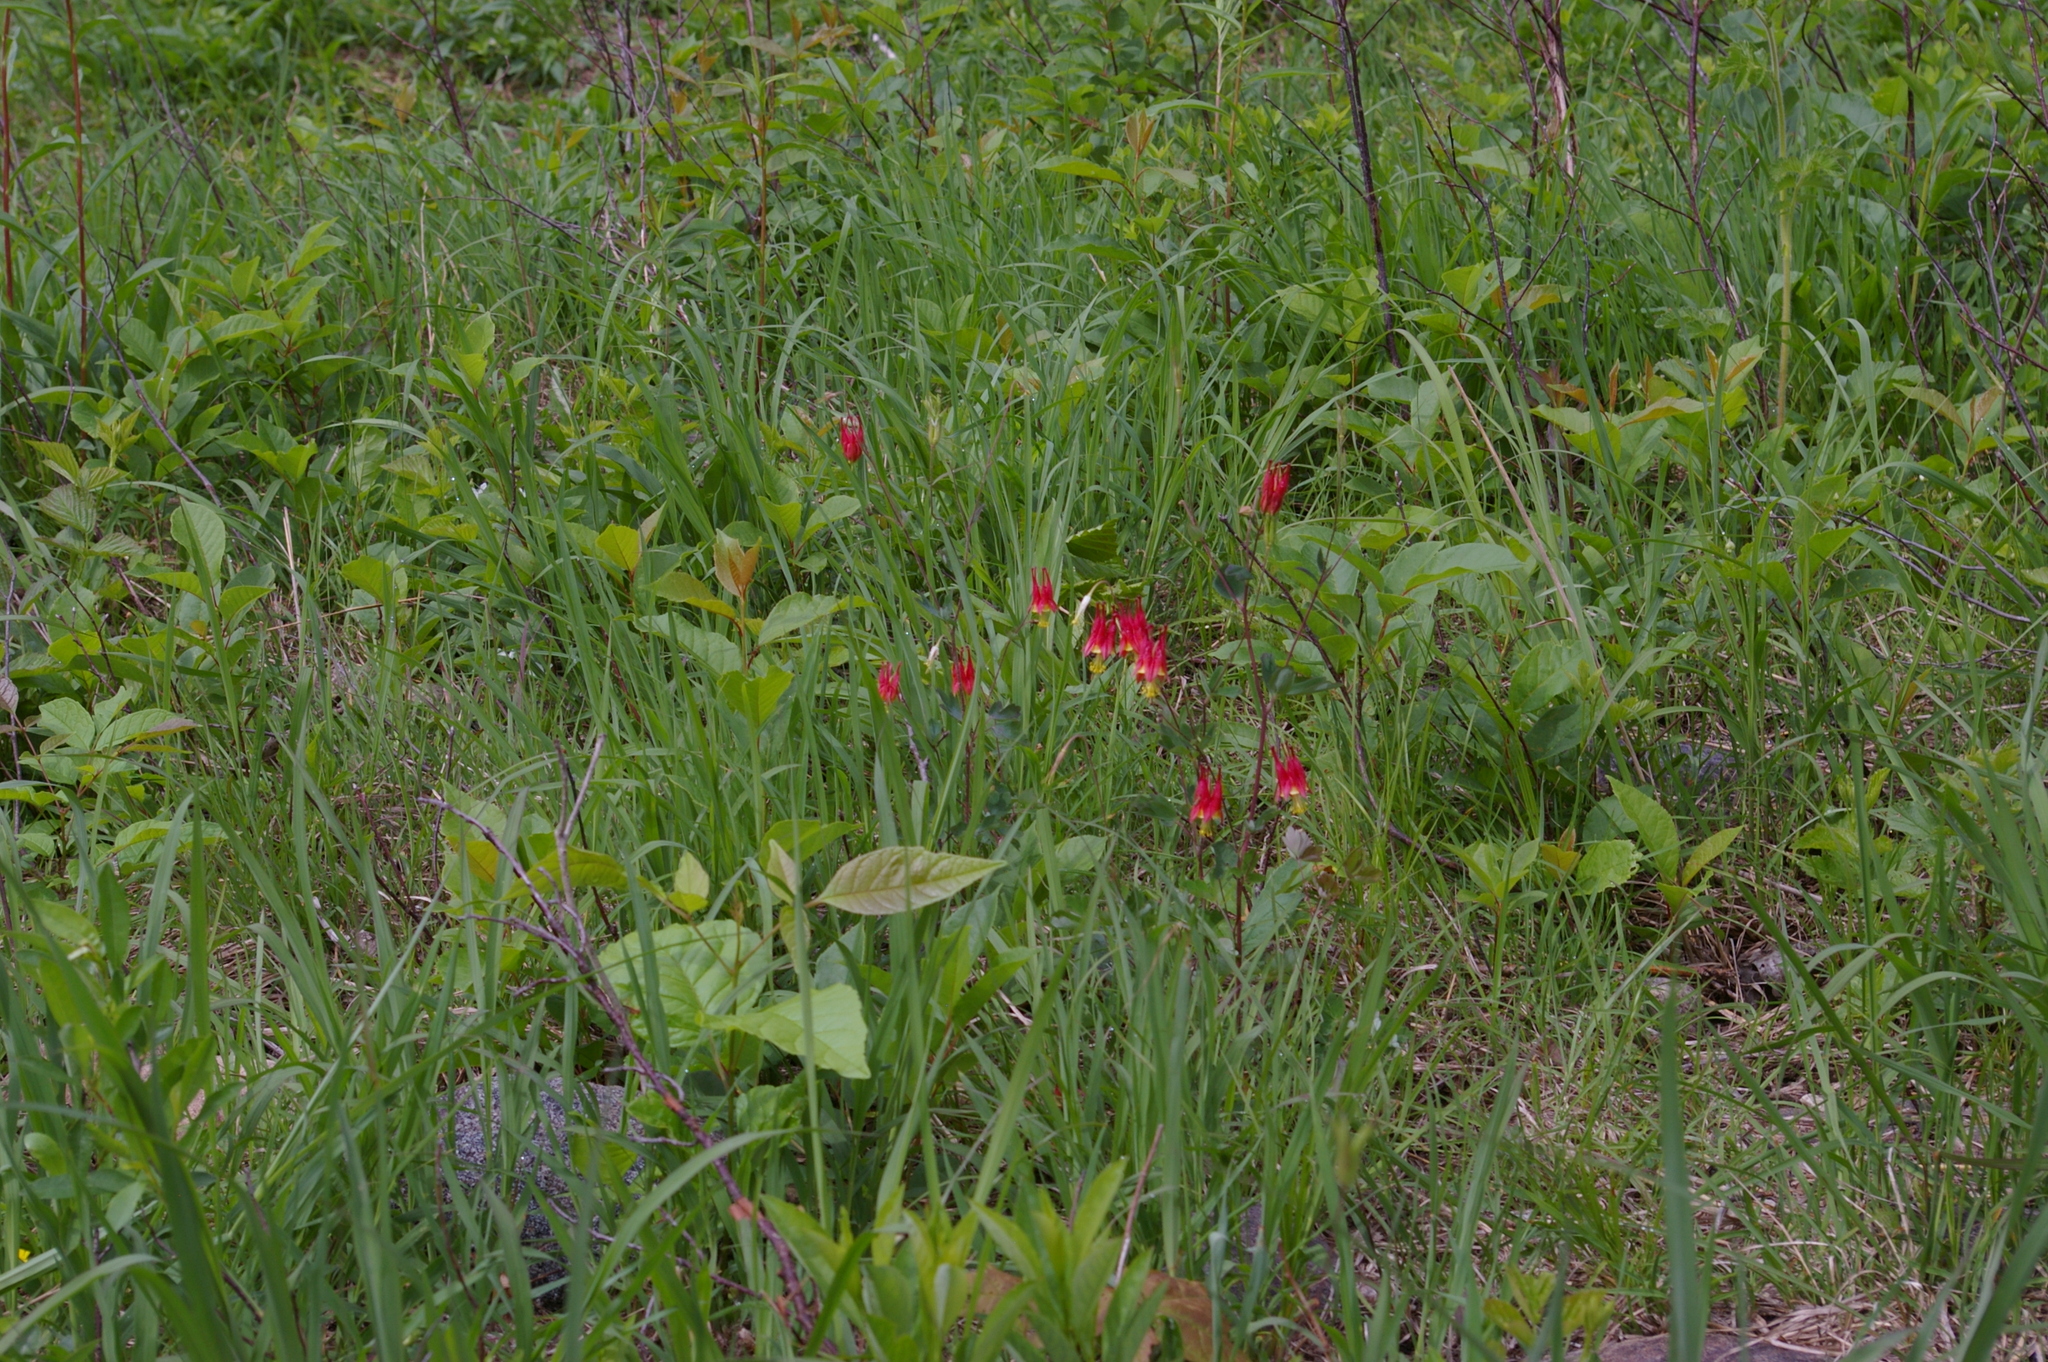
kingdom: Plantae
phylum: Tracheophyta
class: Magnoliopsida
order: Ranunculales
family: Ranunculaceae
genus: Aquilegia
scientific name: Aquilegia canadensis
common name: American columbine
